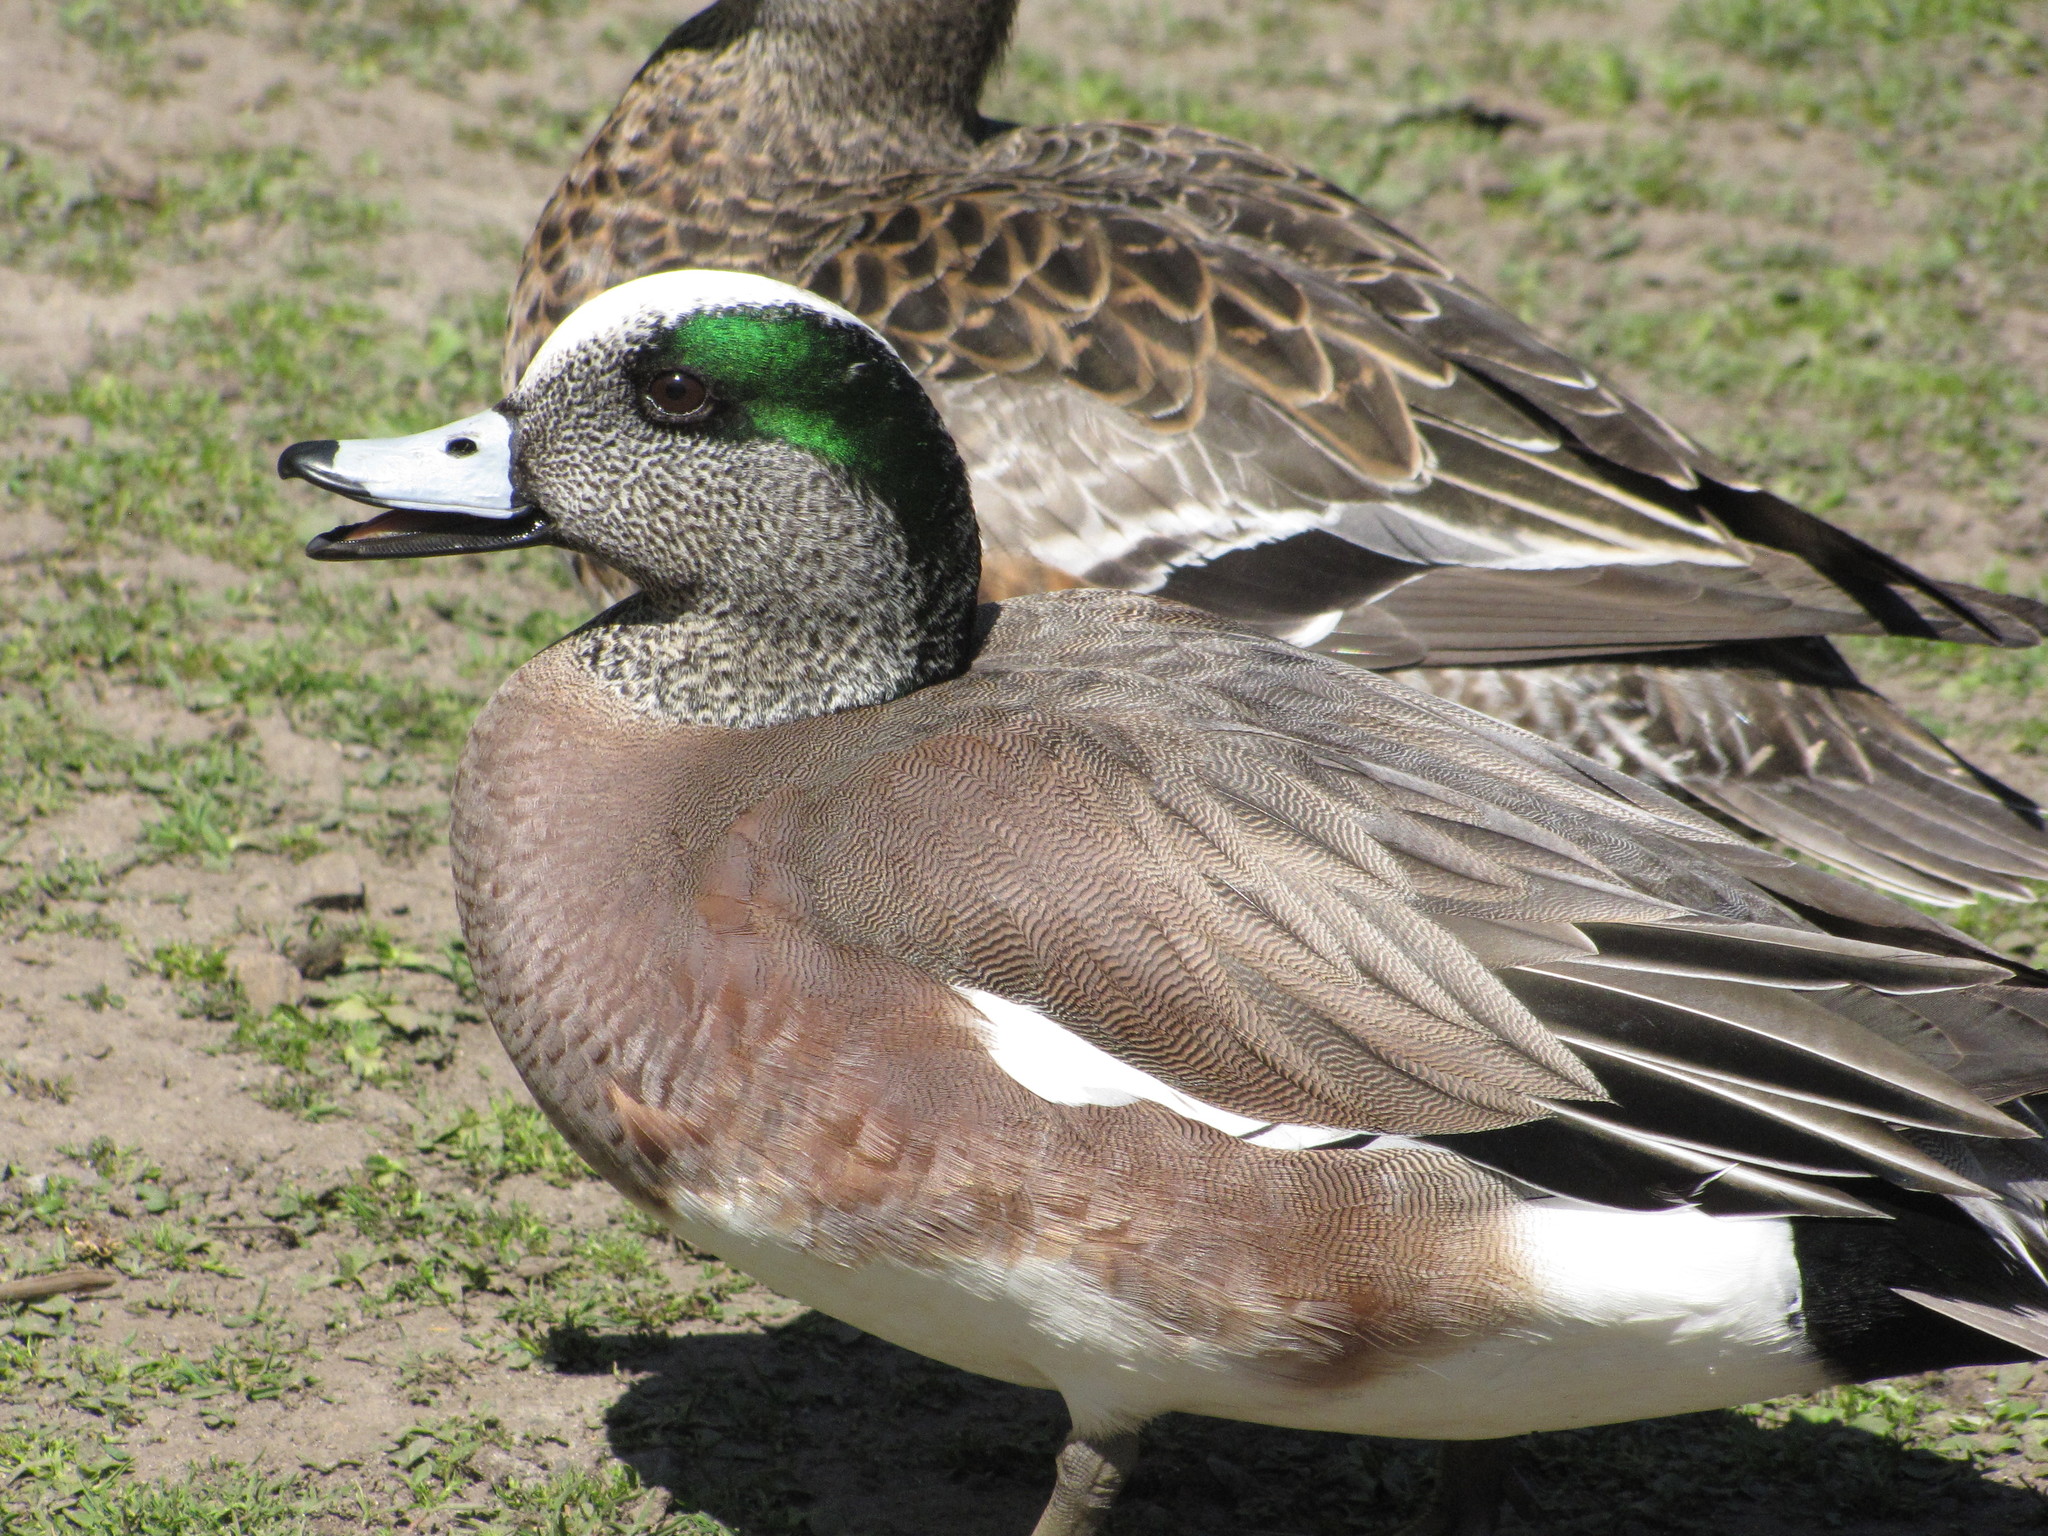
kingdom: Animalia
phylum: Chordata
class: Aves
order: Anseriformes
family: Anatidae
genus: Mareca
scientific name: Mareca americana
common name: American wigeon
